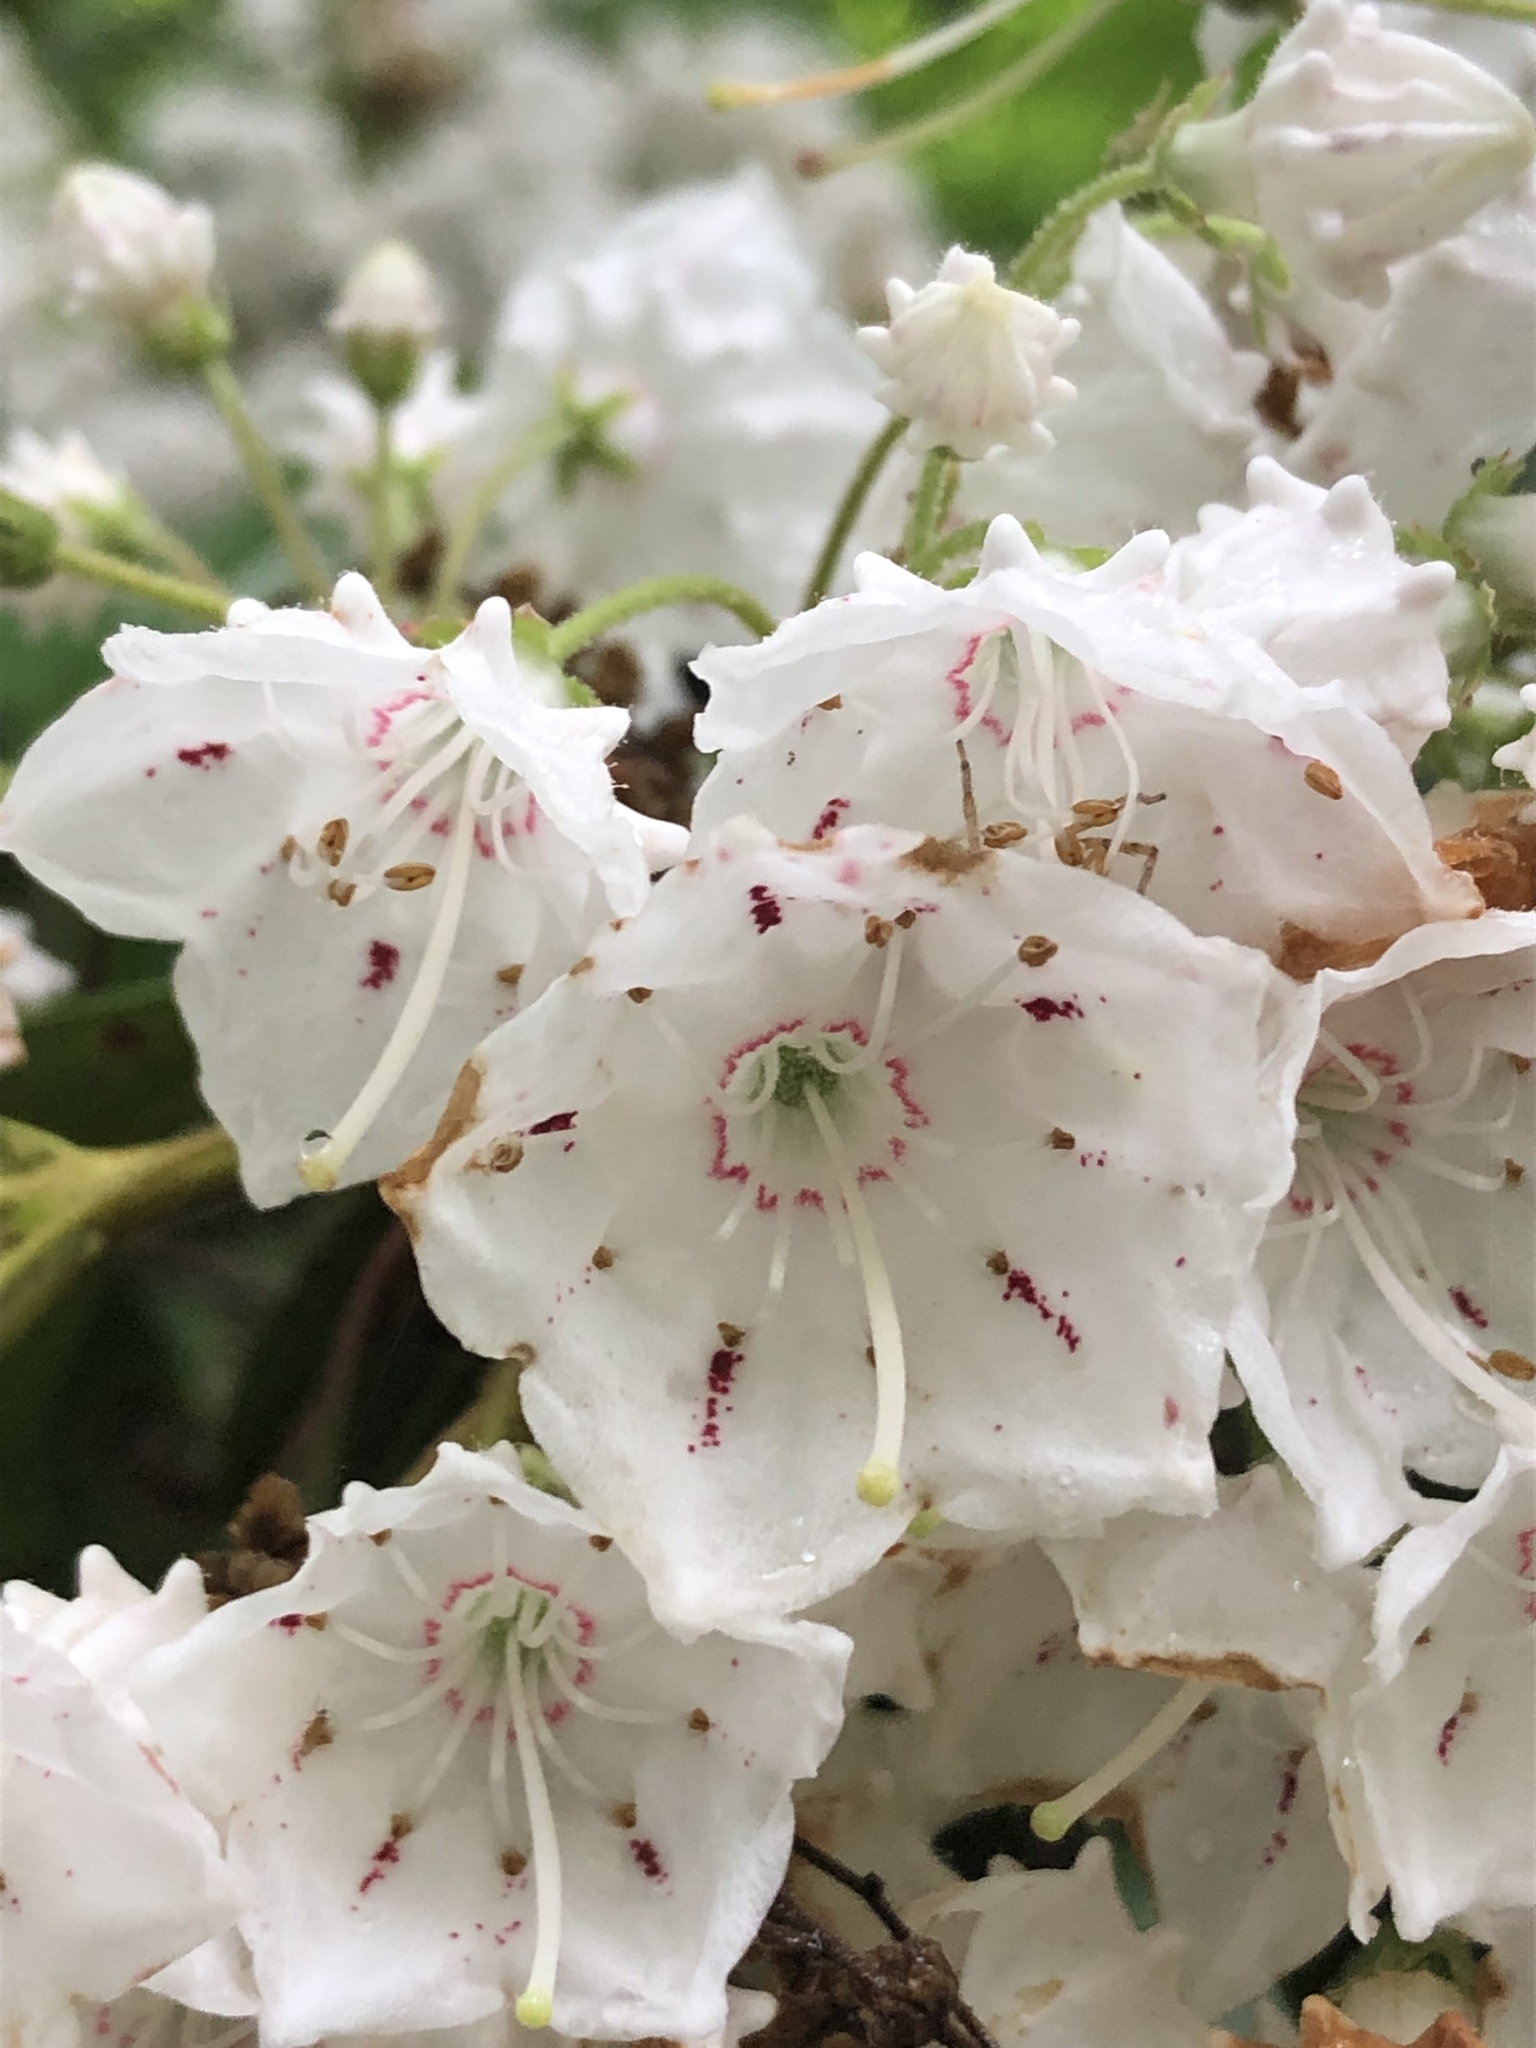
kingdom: Plantae
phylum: Tracheophyta
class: Magnoliopsida
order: Ericales
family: Ericaceae
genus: Kalmia
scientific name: Kalmia latifolia
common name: Mountain-laurel
